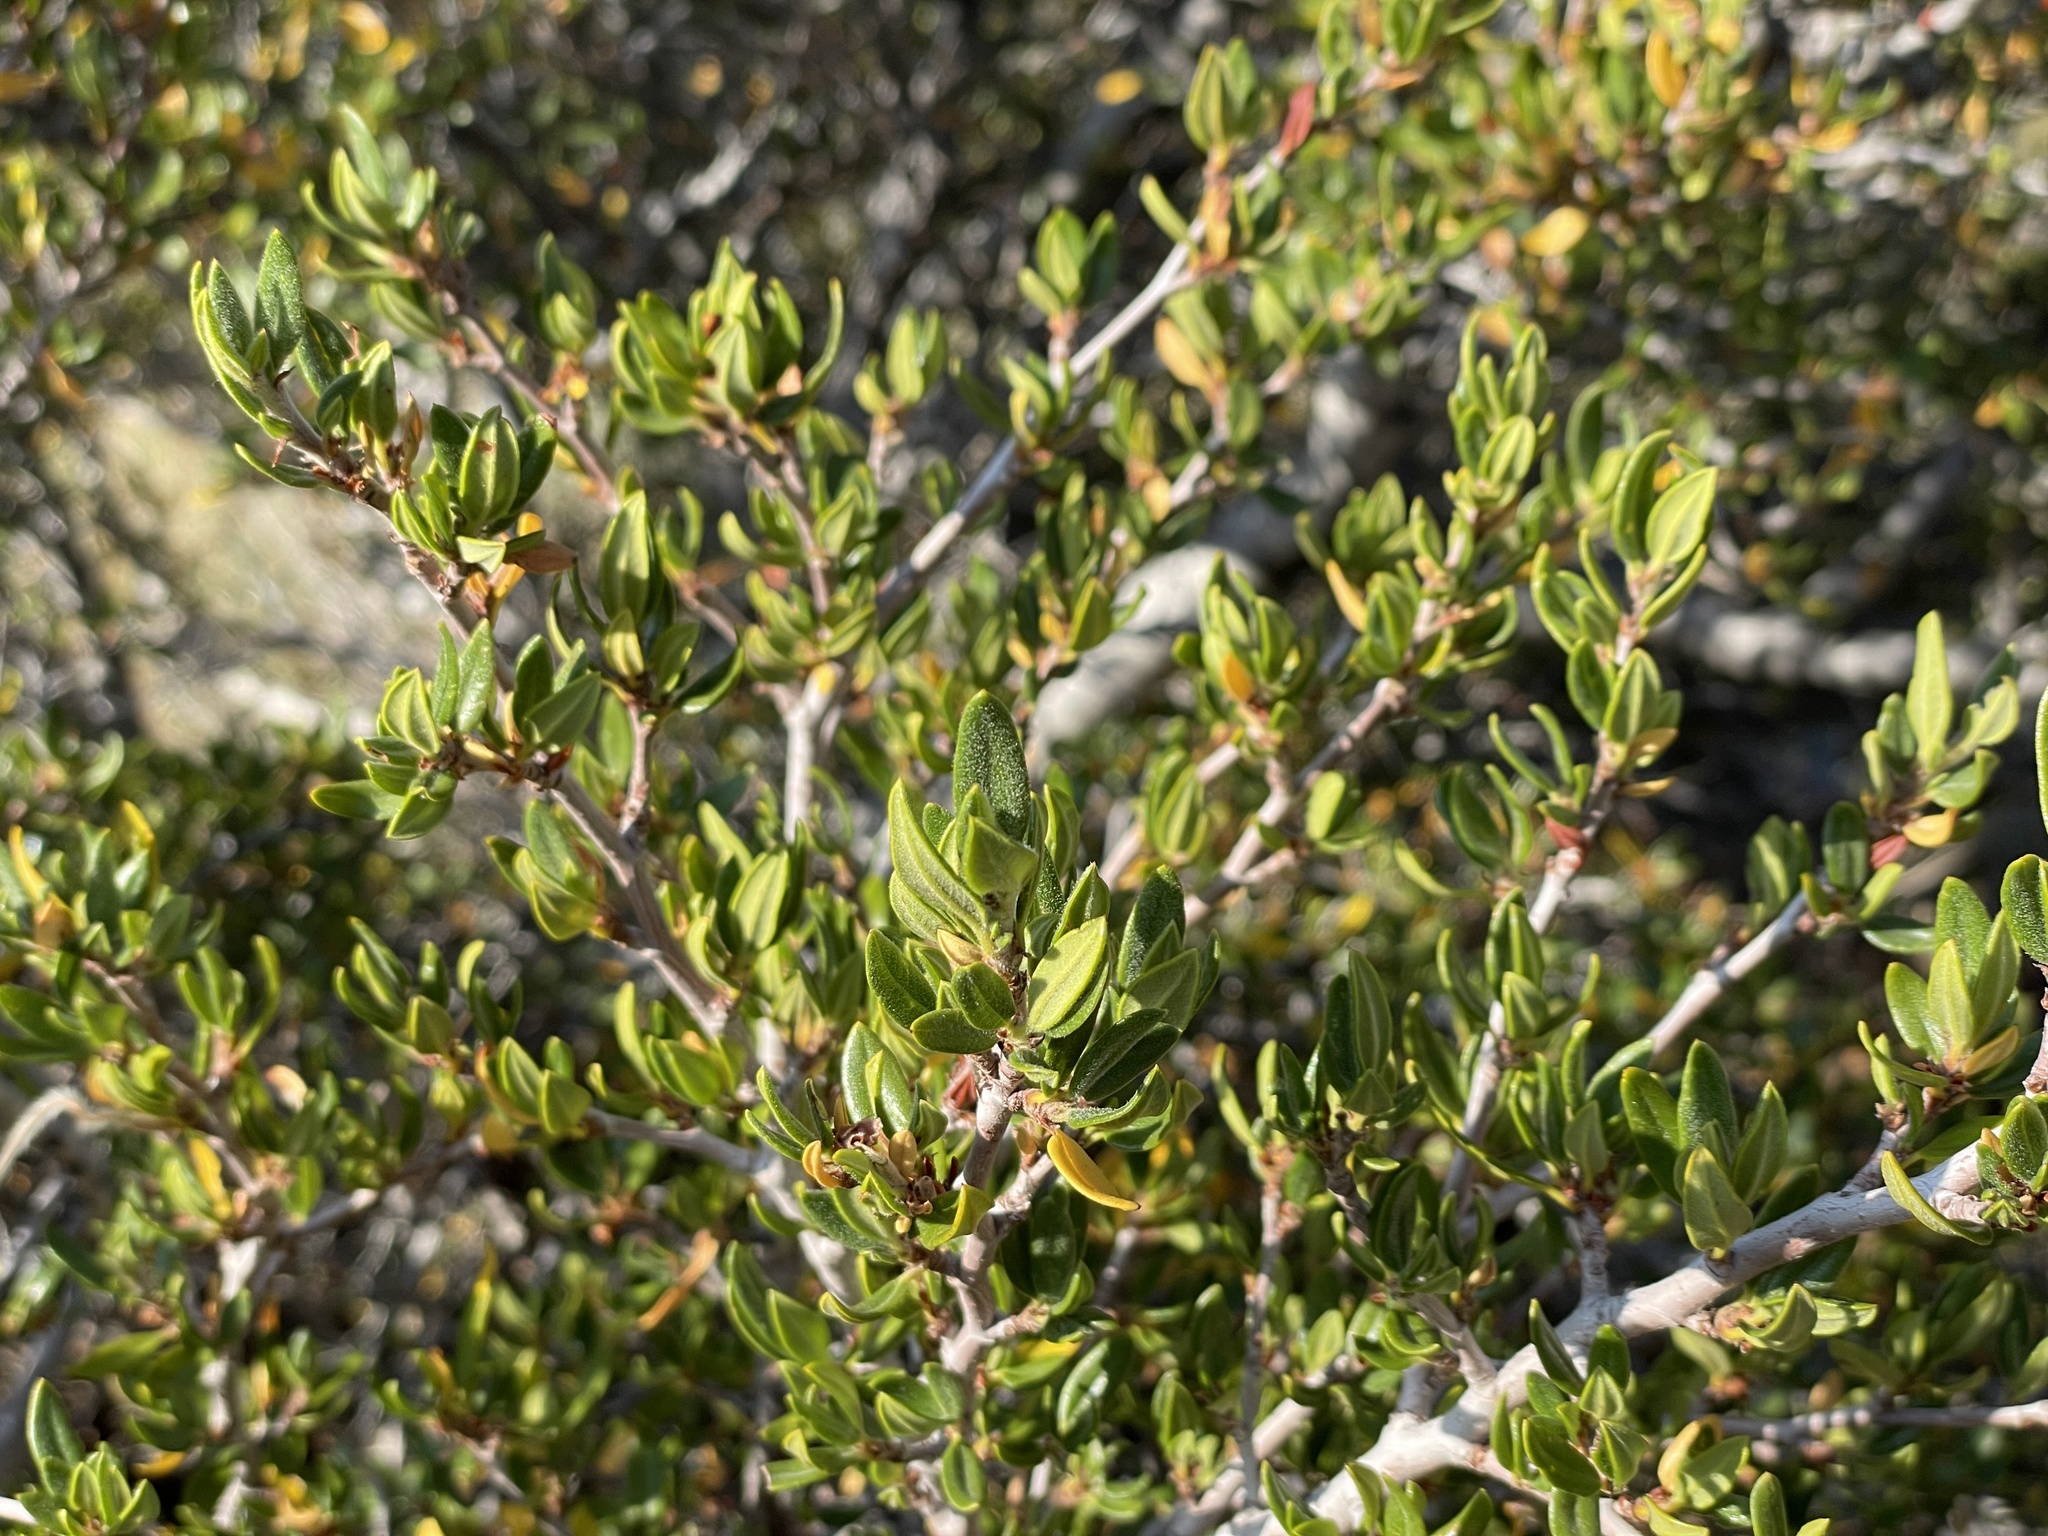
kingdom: Plantae
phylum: Tracheophyta
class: Magnoliopsida
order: Rosales
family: Rosaceae
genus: Cercocarpus
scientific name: Cercocarpus ledifolius
